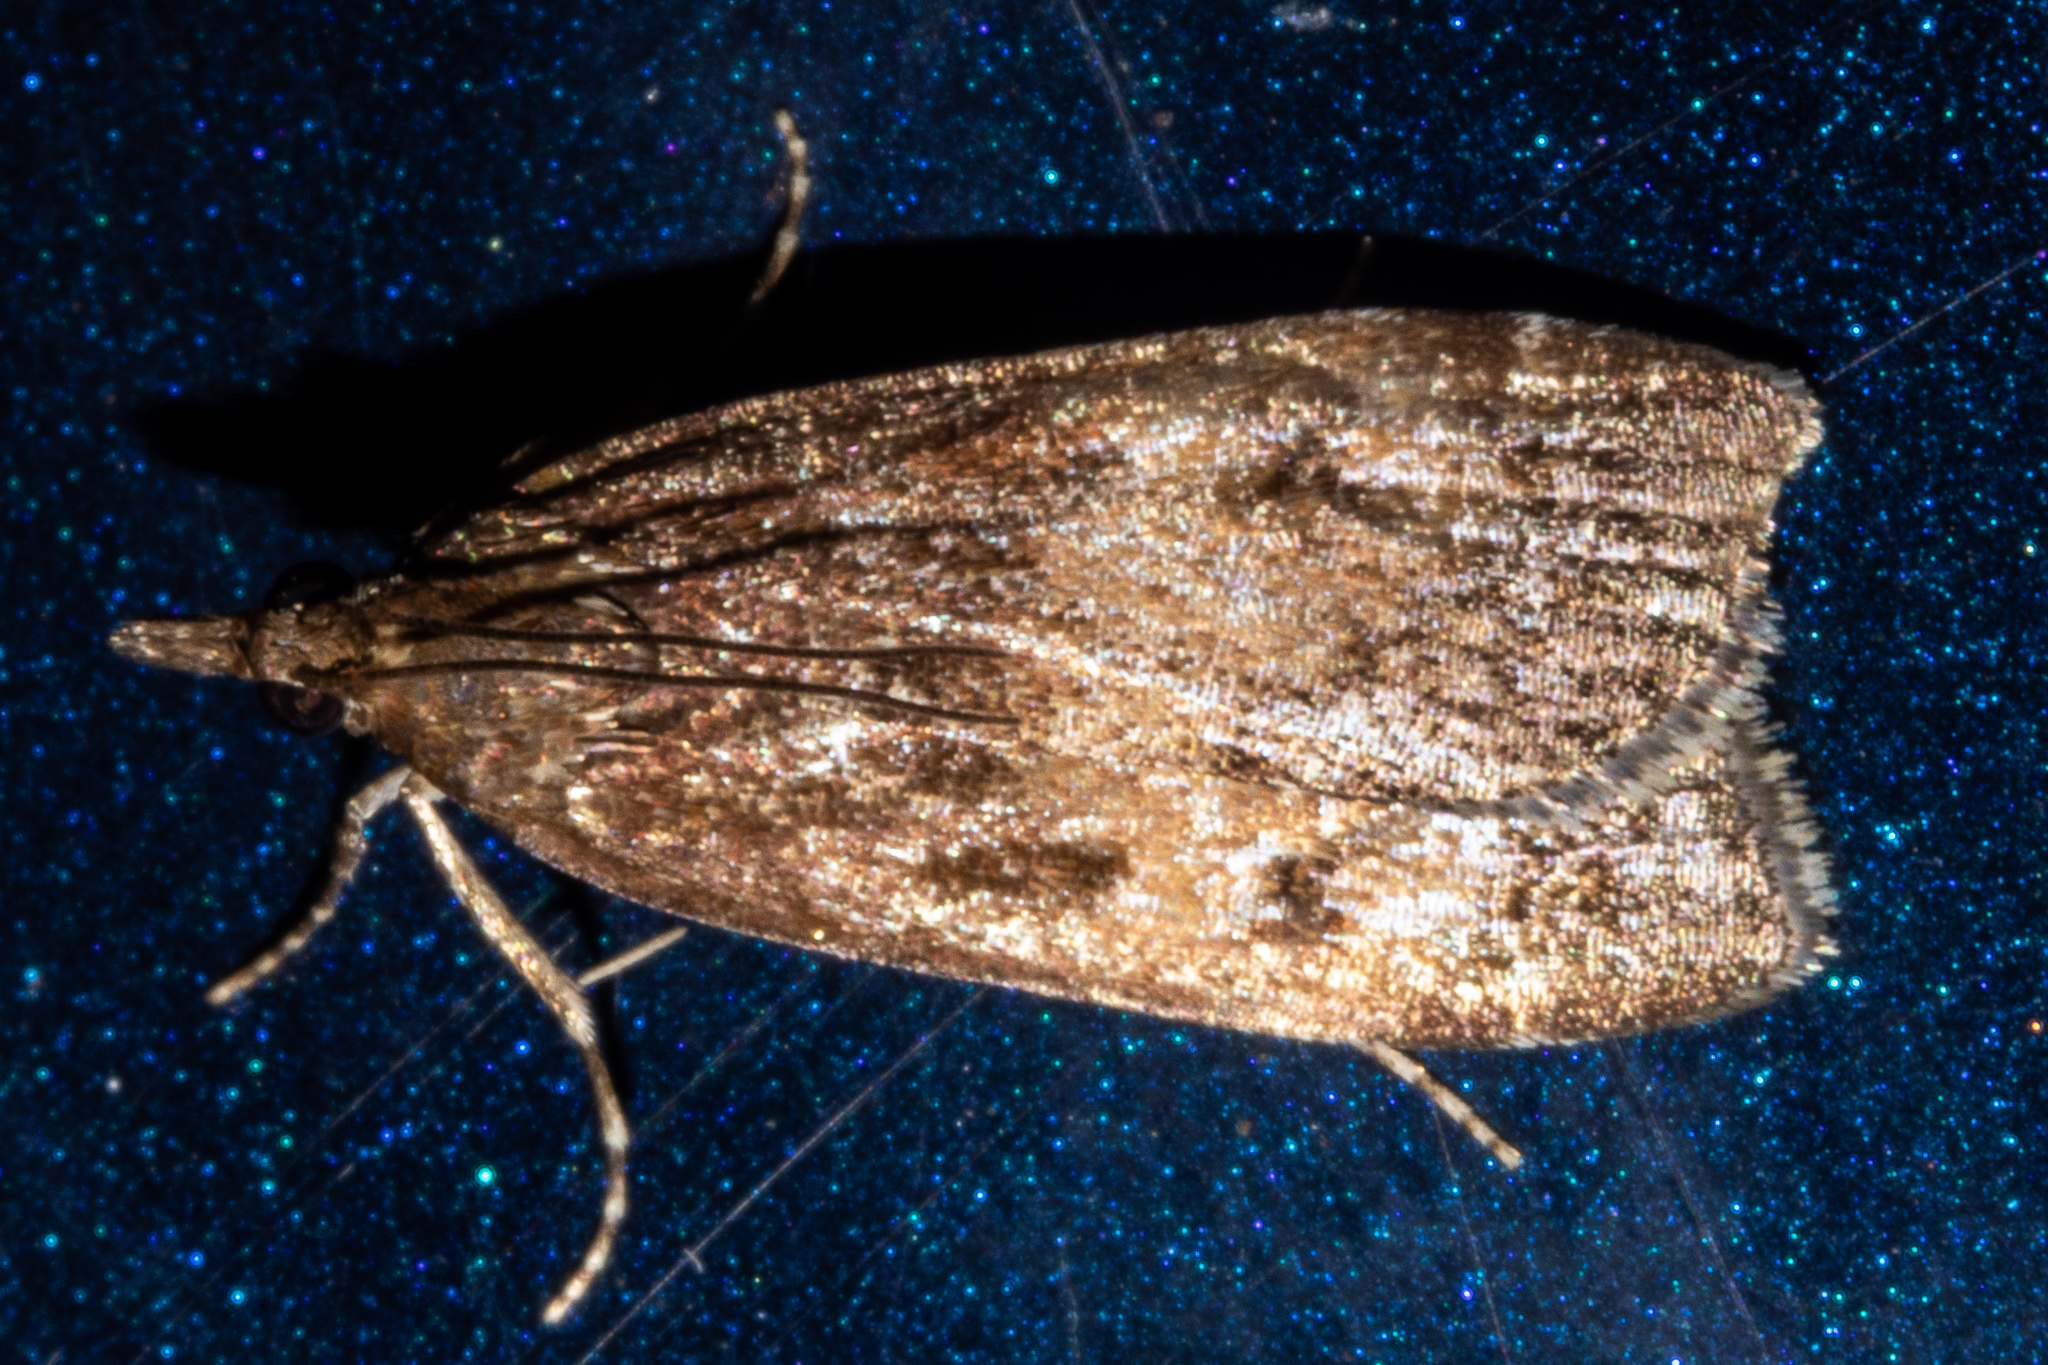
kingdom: Animalia
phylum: Arthropoda
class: Insecta
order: Lepidoptera
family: Crambidae
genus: Eudonia
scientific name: Eudonia asterisca
